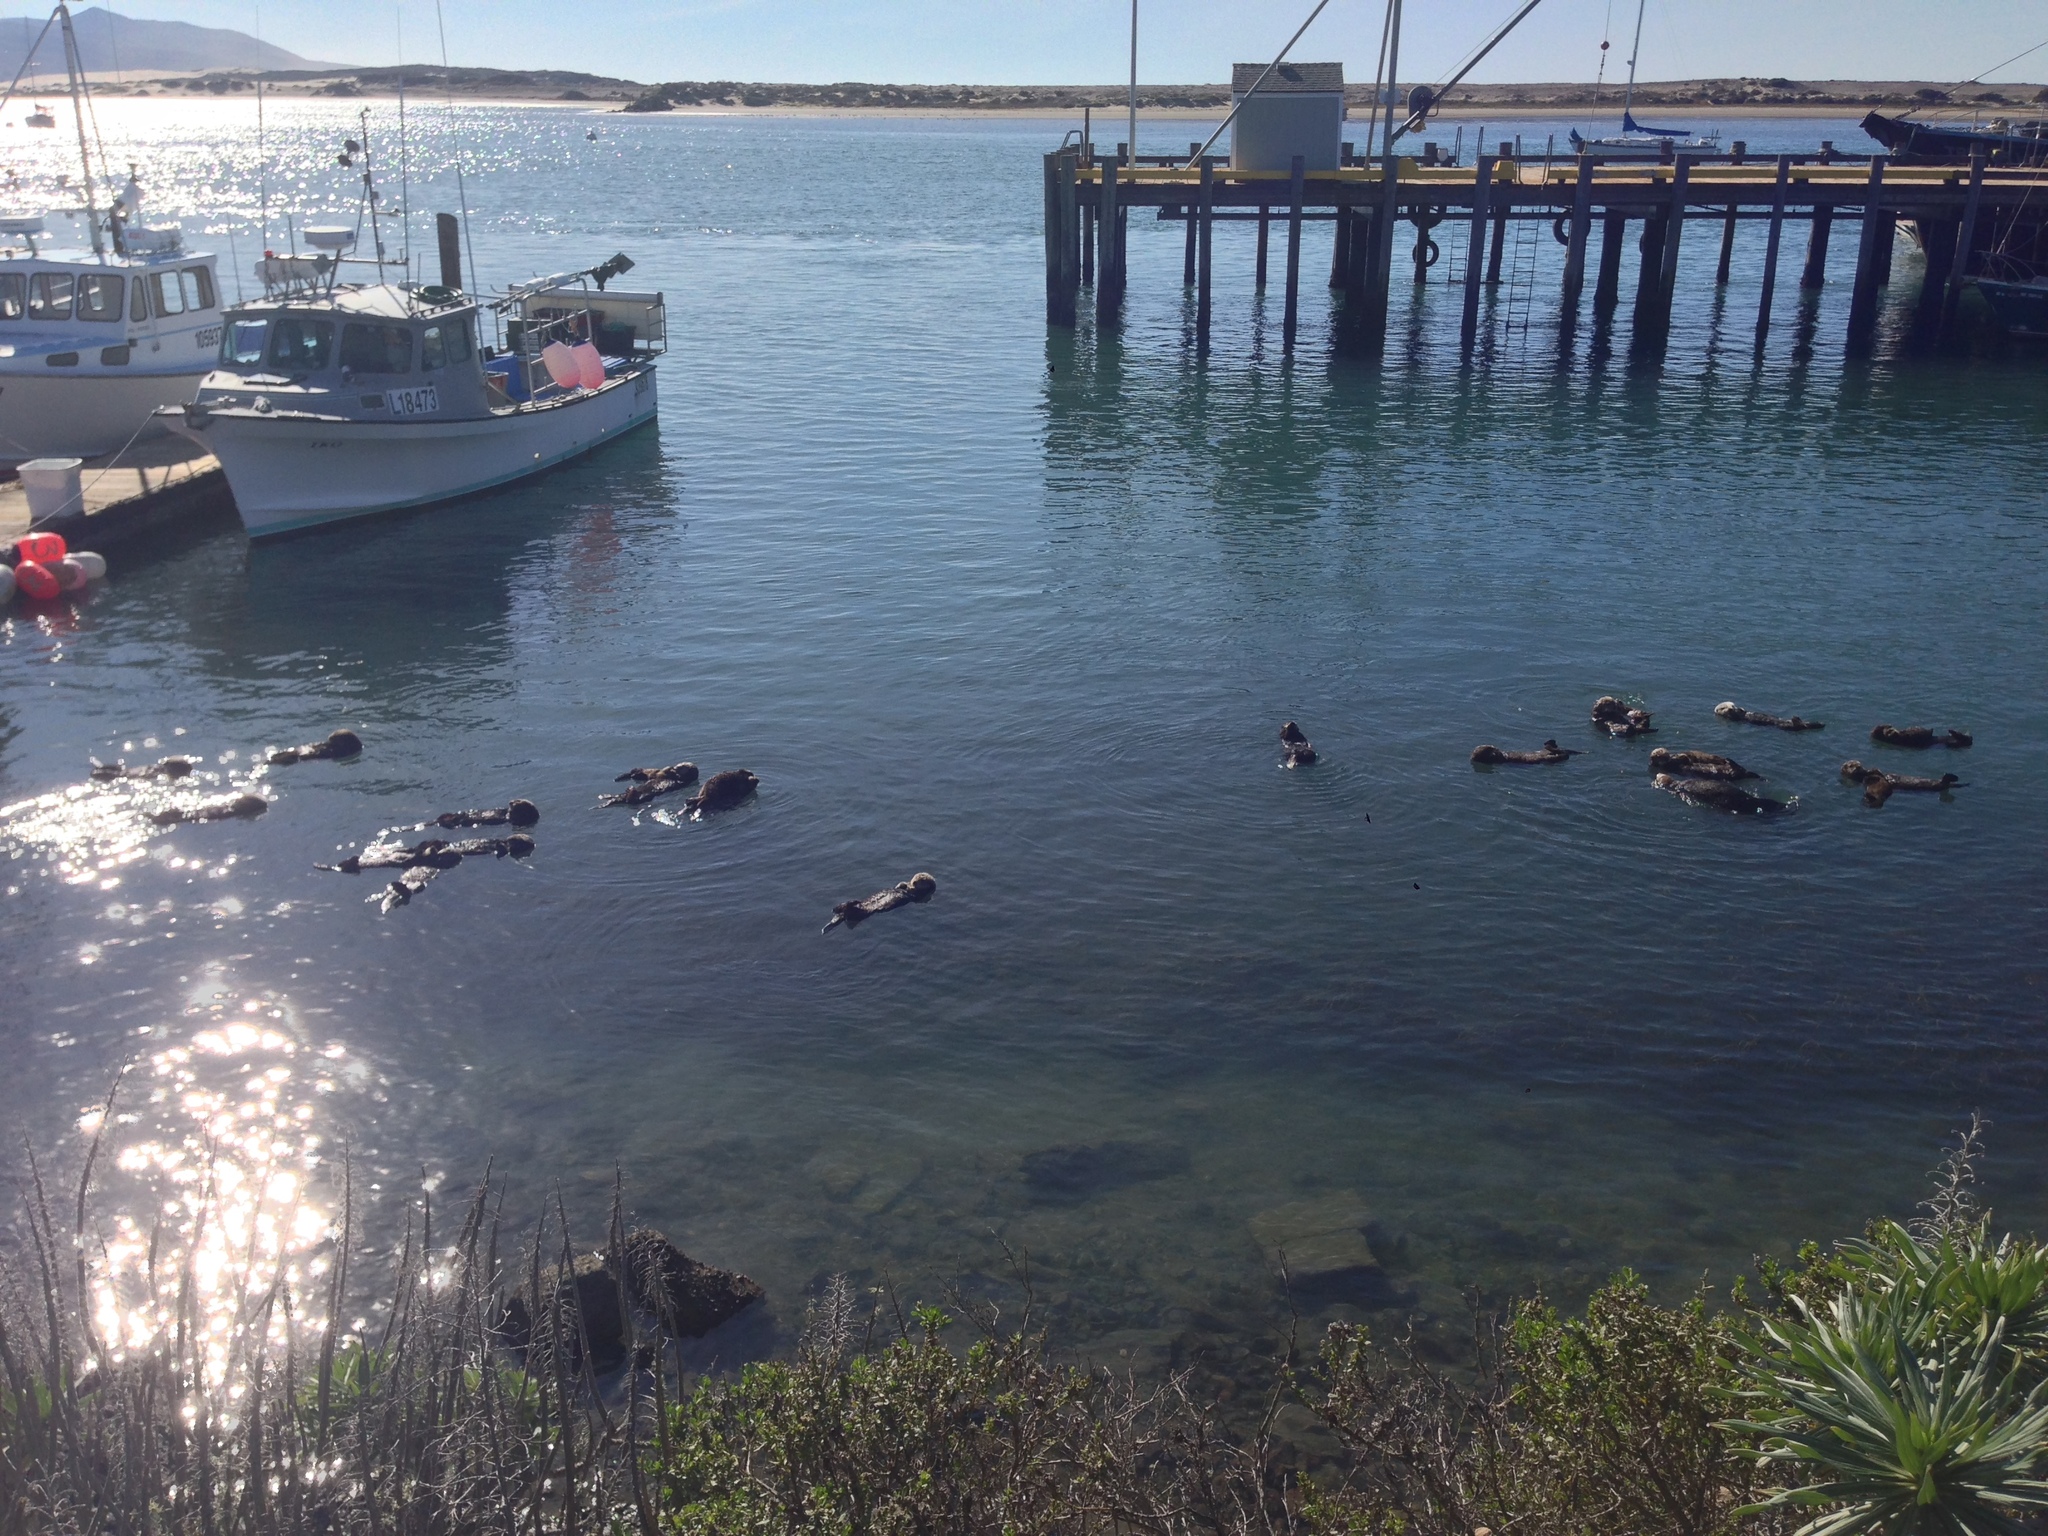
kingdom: Animalia
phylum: Chordata
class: Mammalia
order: Carnivora
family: Mustelidae
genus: Enhydra
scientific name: Enhydra lutris
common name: Sea otter
